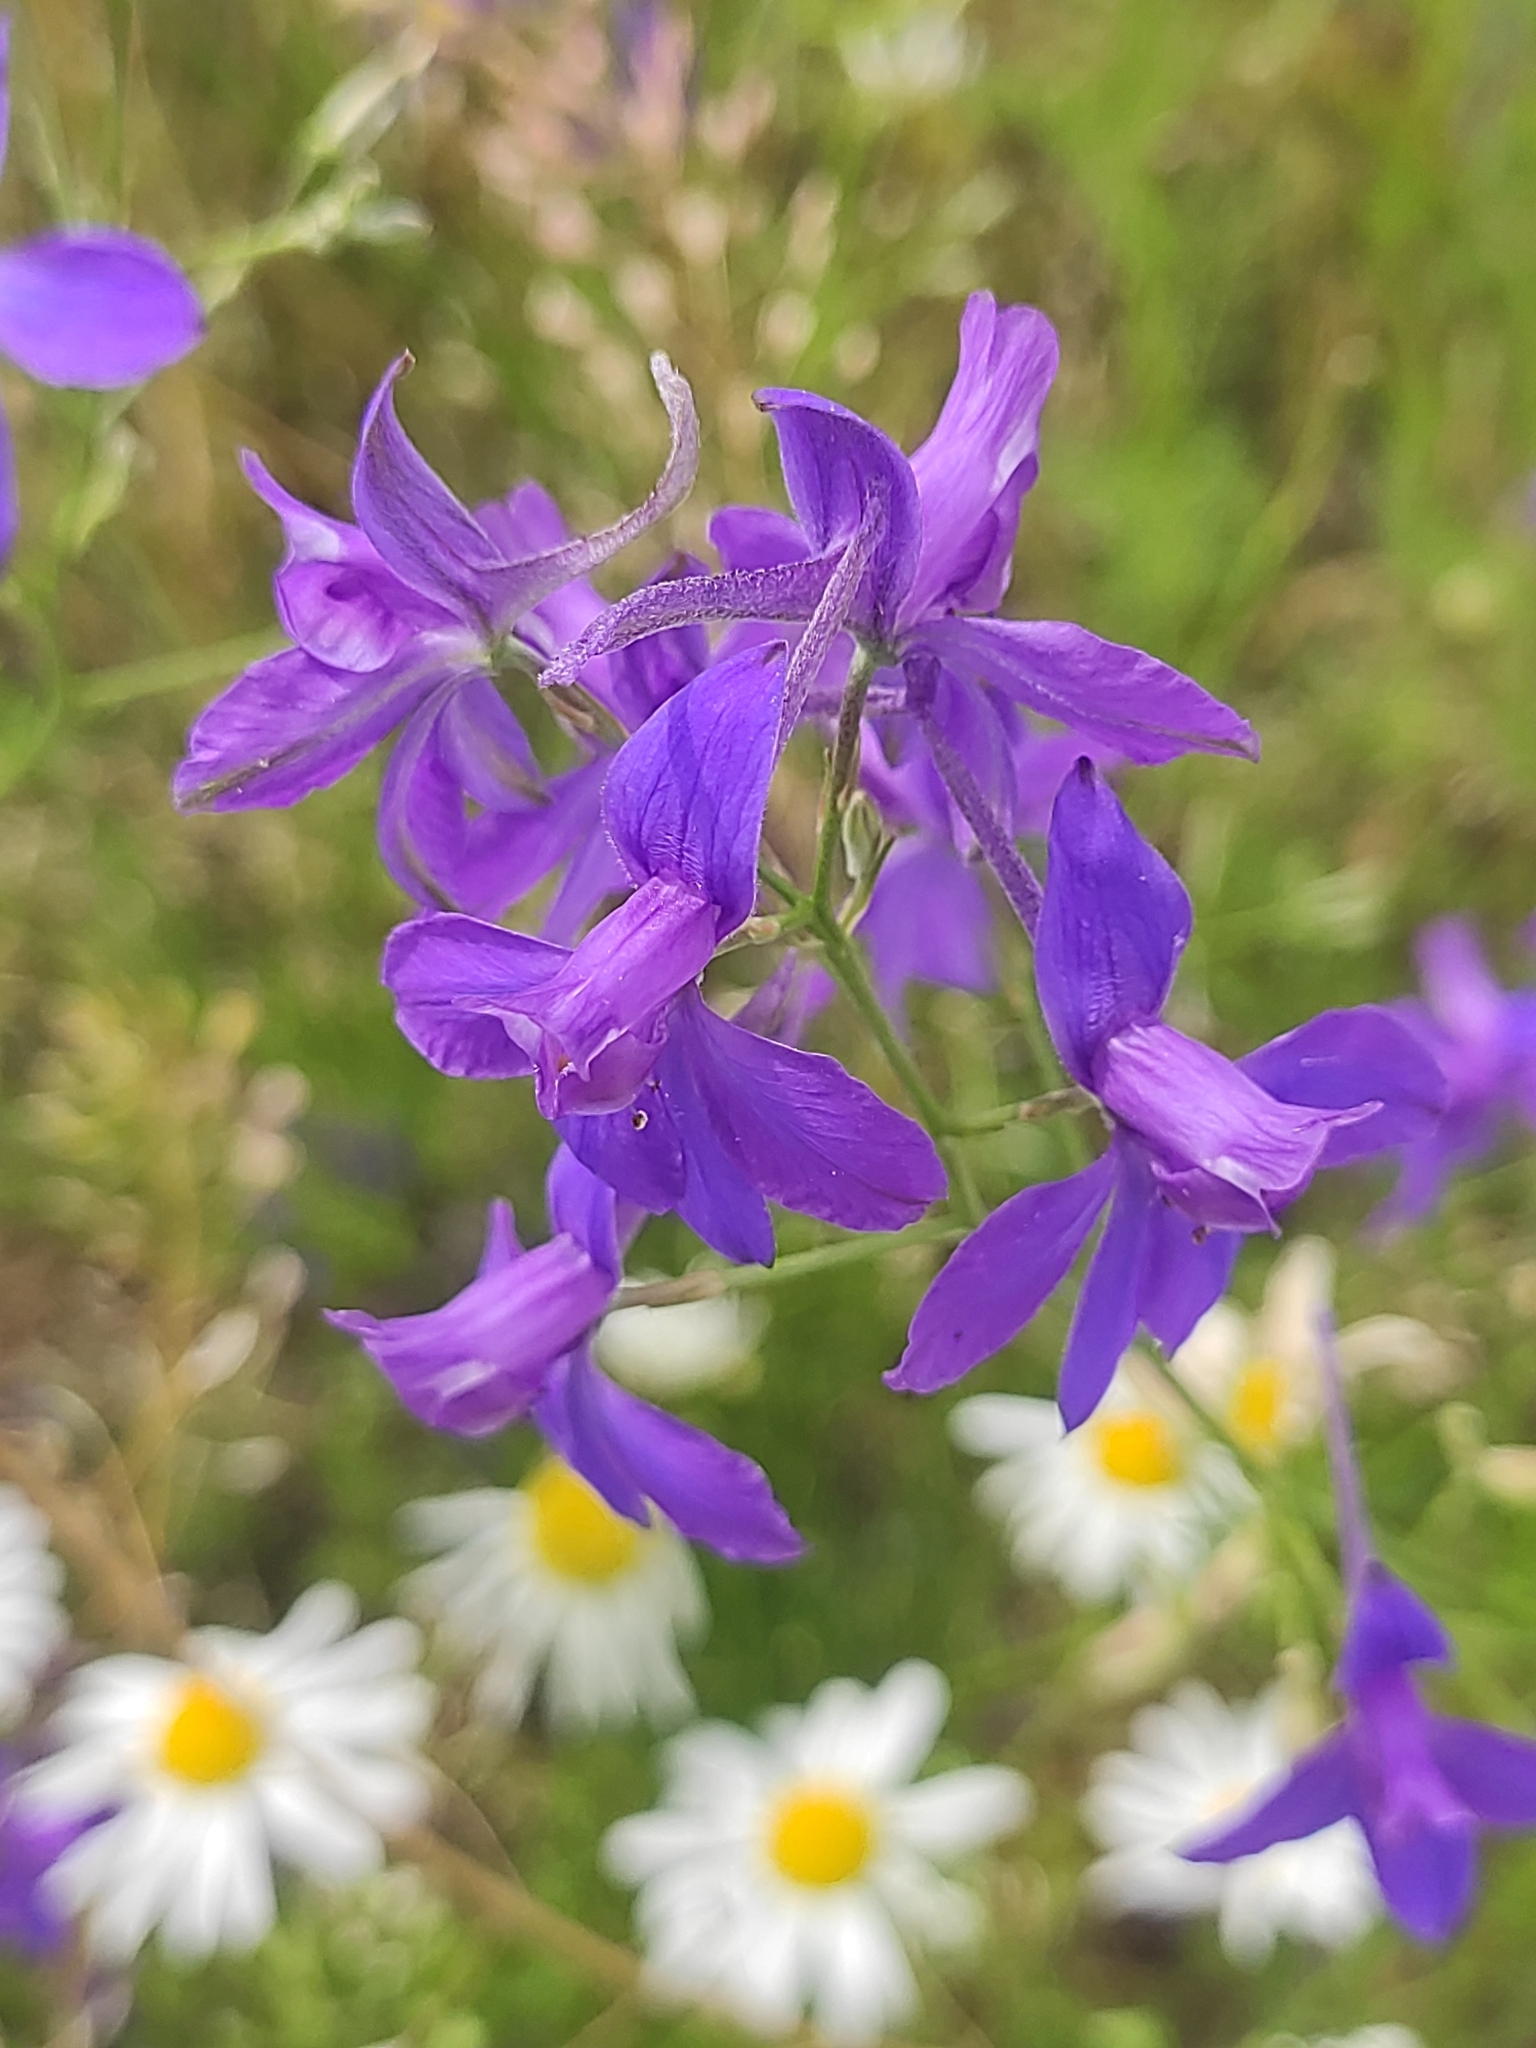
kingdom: Plantae
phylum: Tracheophyta
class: Magnoliopsida
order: Ranunculales
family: Ranunculaceae
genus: Delphinium
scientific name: Delphinium consolida
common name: Branching larkspur
